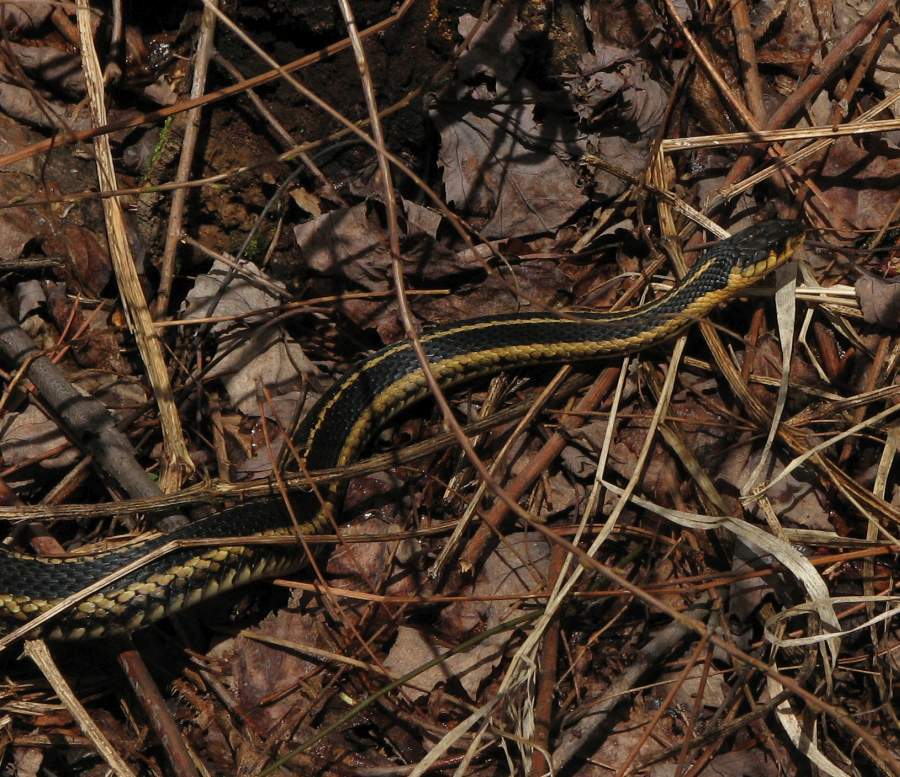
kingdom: Animalia
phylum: Chordata
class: Squamata
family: Colubridae
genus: Thamnophis
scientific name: Thamnophis sirtalis
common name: Common garter snake
